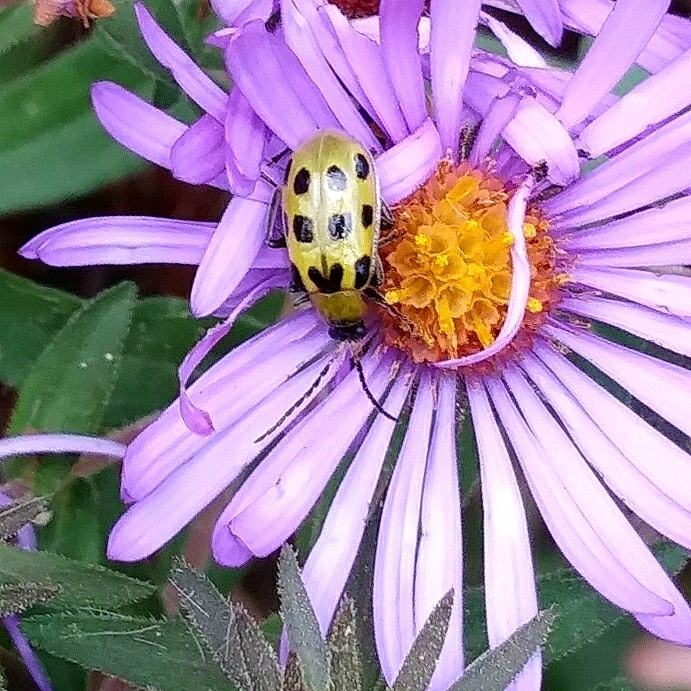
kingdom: Animalia
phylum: Arthropoda
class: Insecta
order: Coleoptera
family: Chrysomelidae
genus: Diabrotica
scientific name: Diabrotica undecimpunctata
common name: Spotted cucumber beetle
